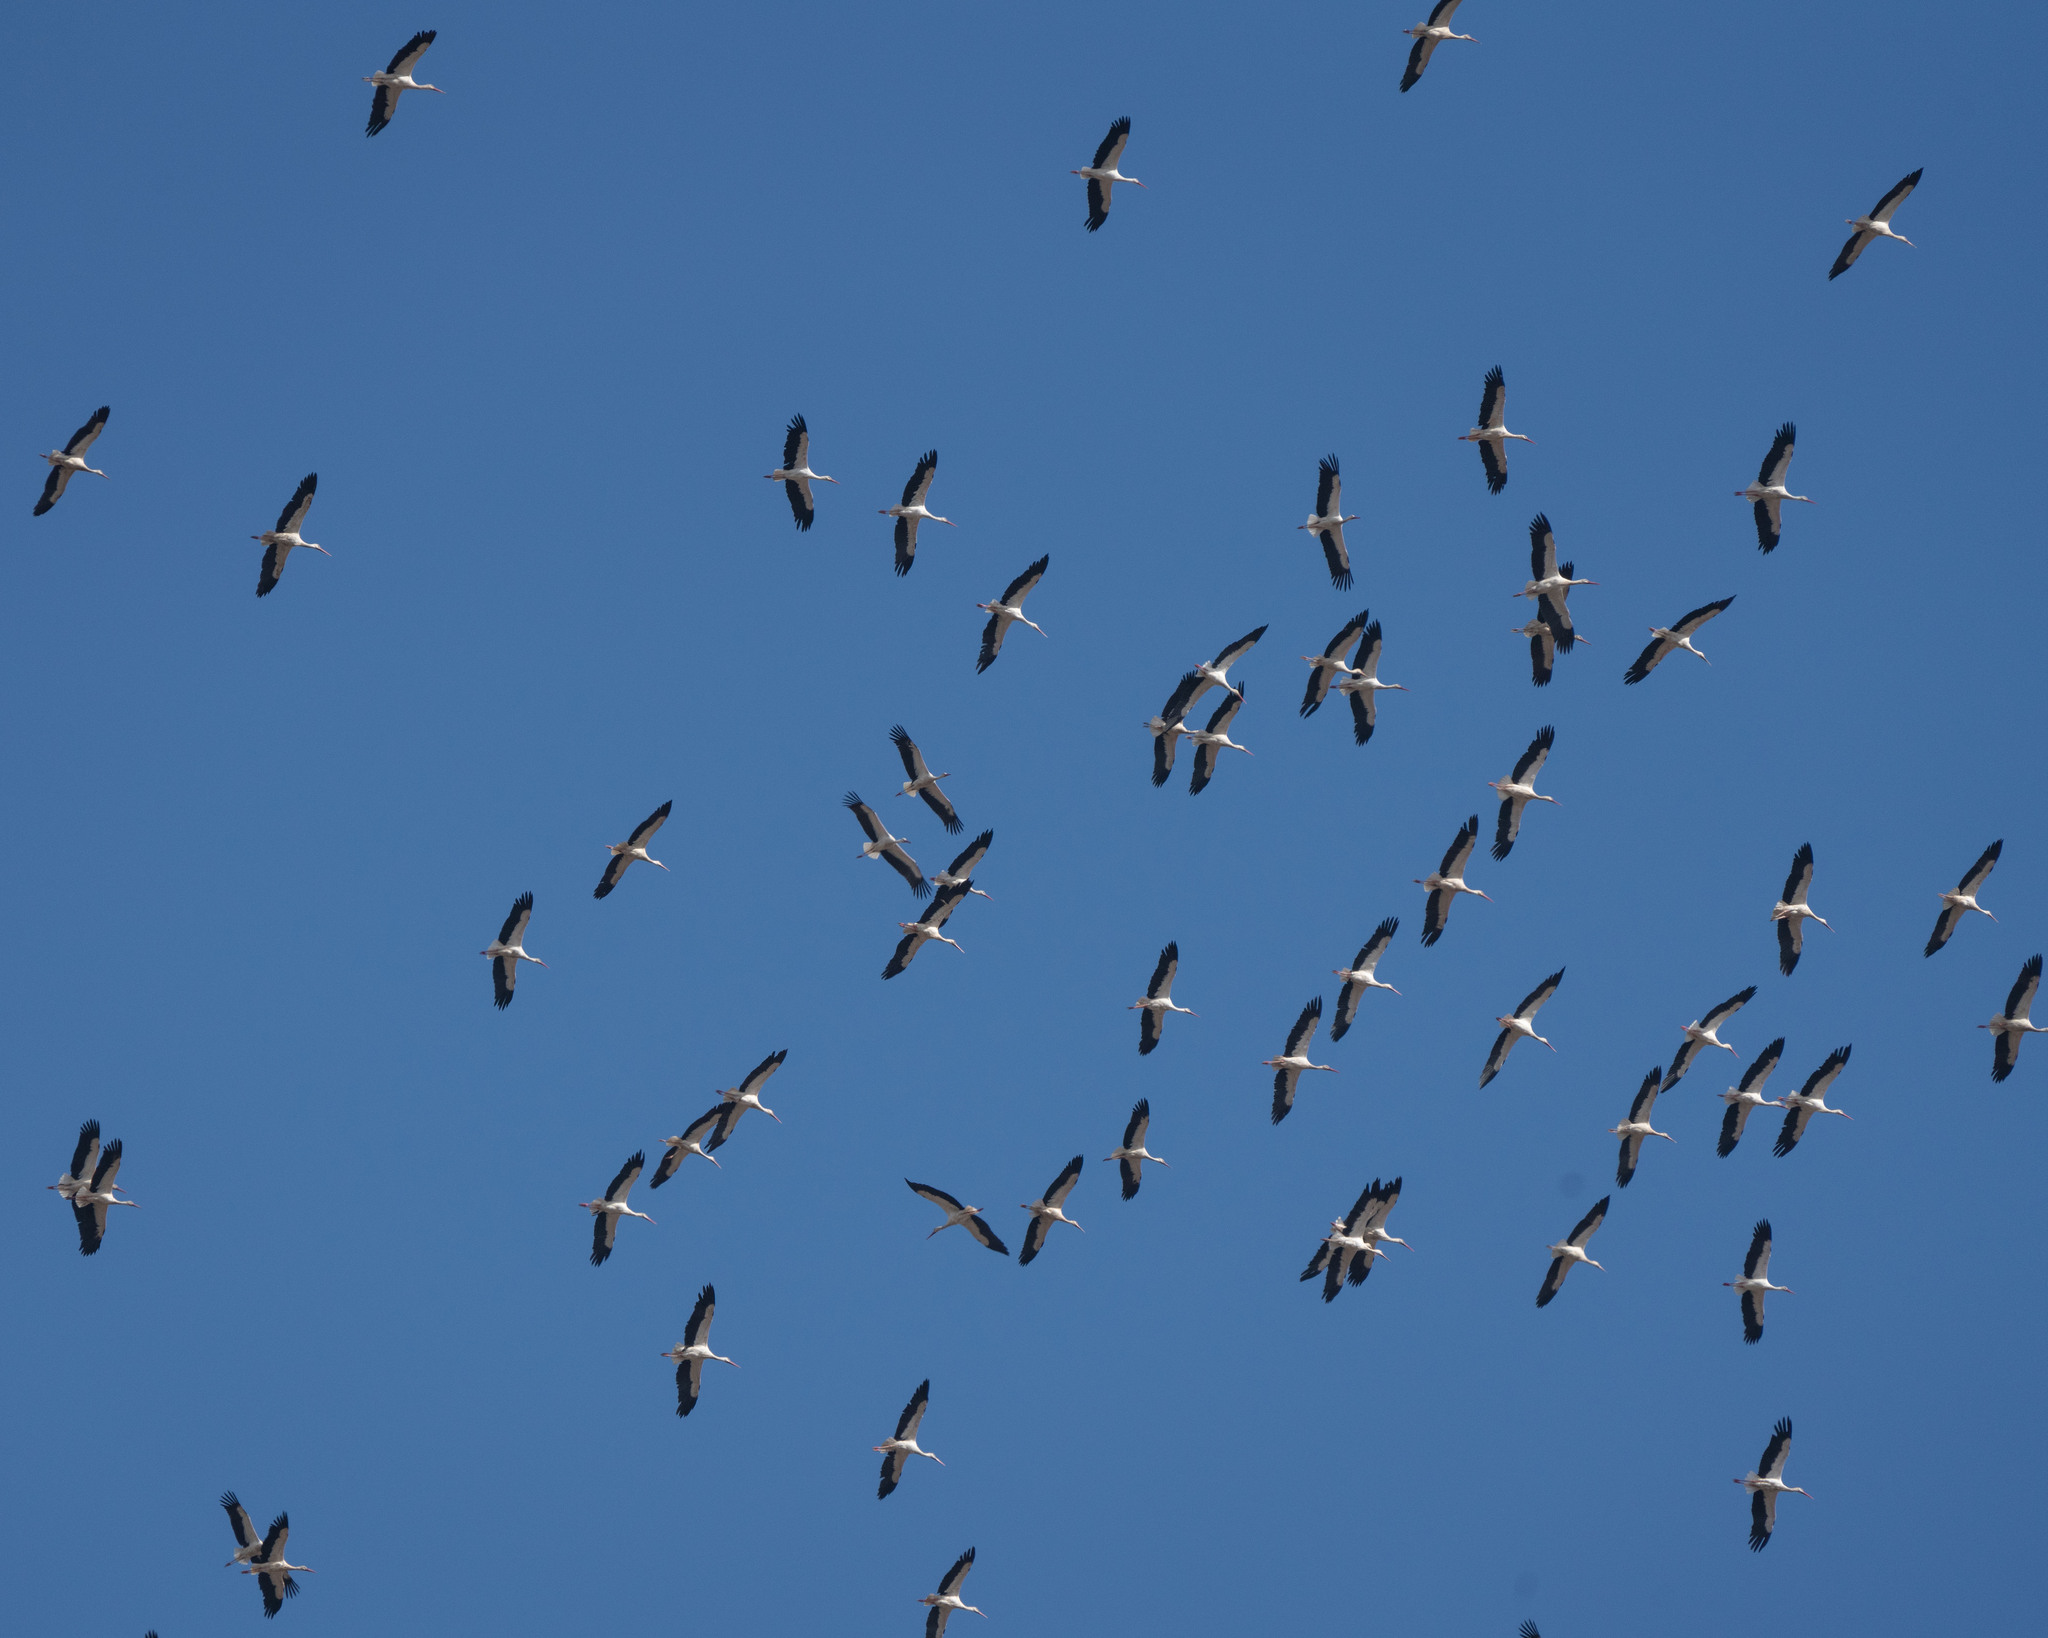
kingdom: Animalia
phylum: Chordata
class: Aves
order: Ciconiiformes
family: Ciconiidae
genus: Ciconia
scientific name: Ciconia ciconia
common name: White stork
